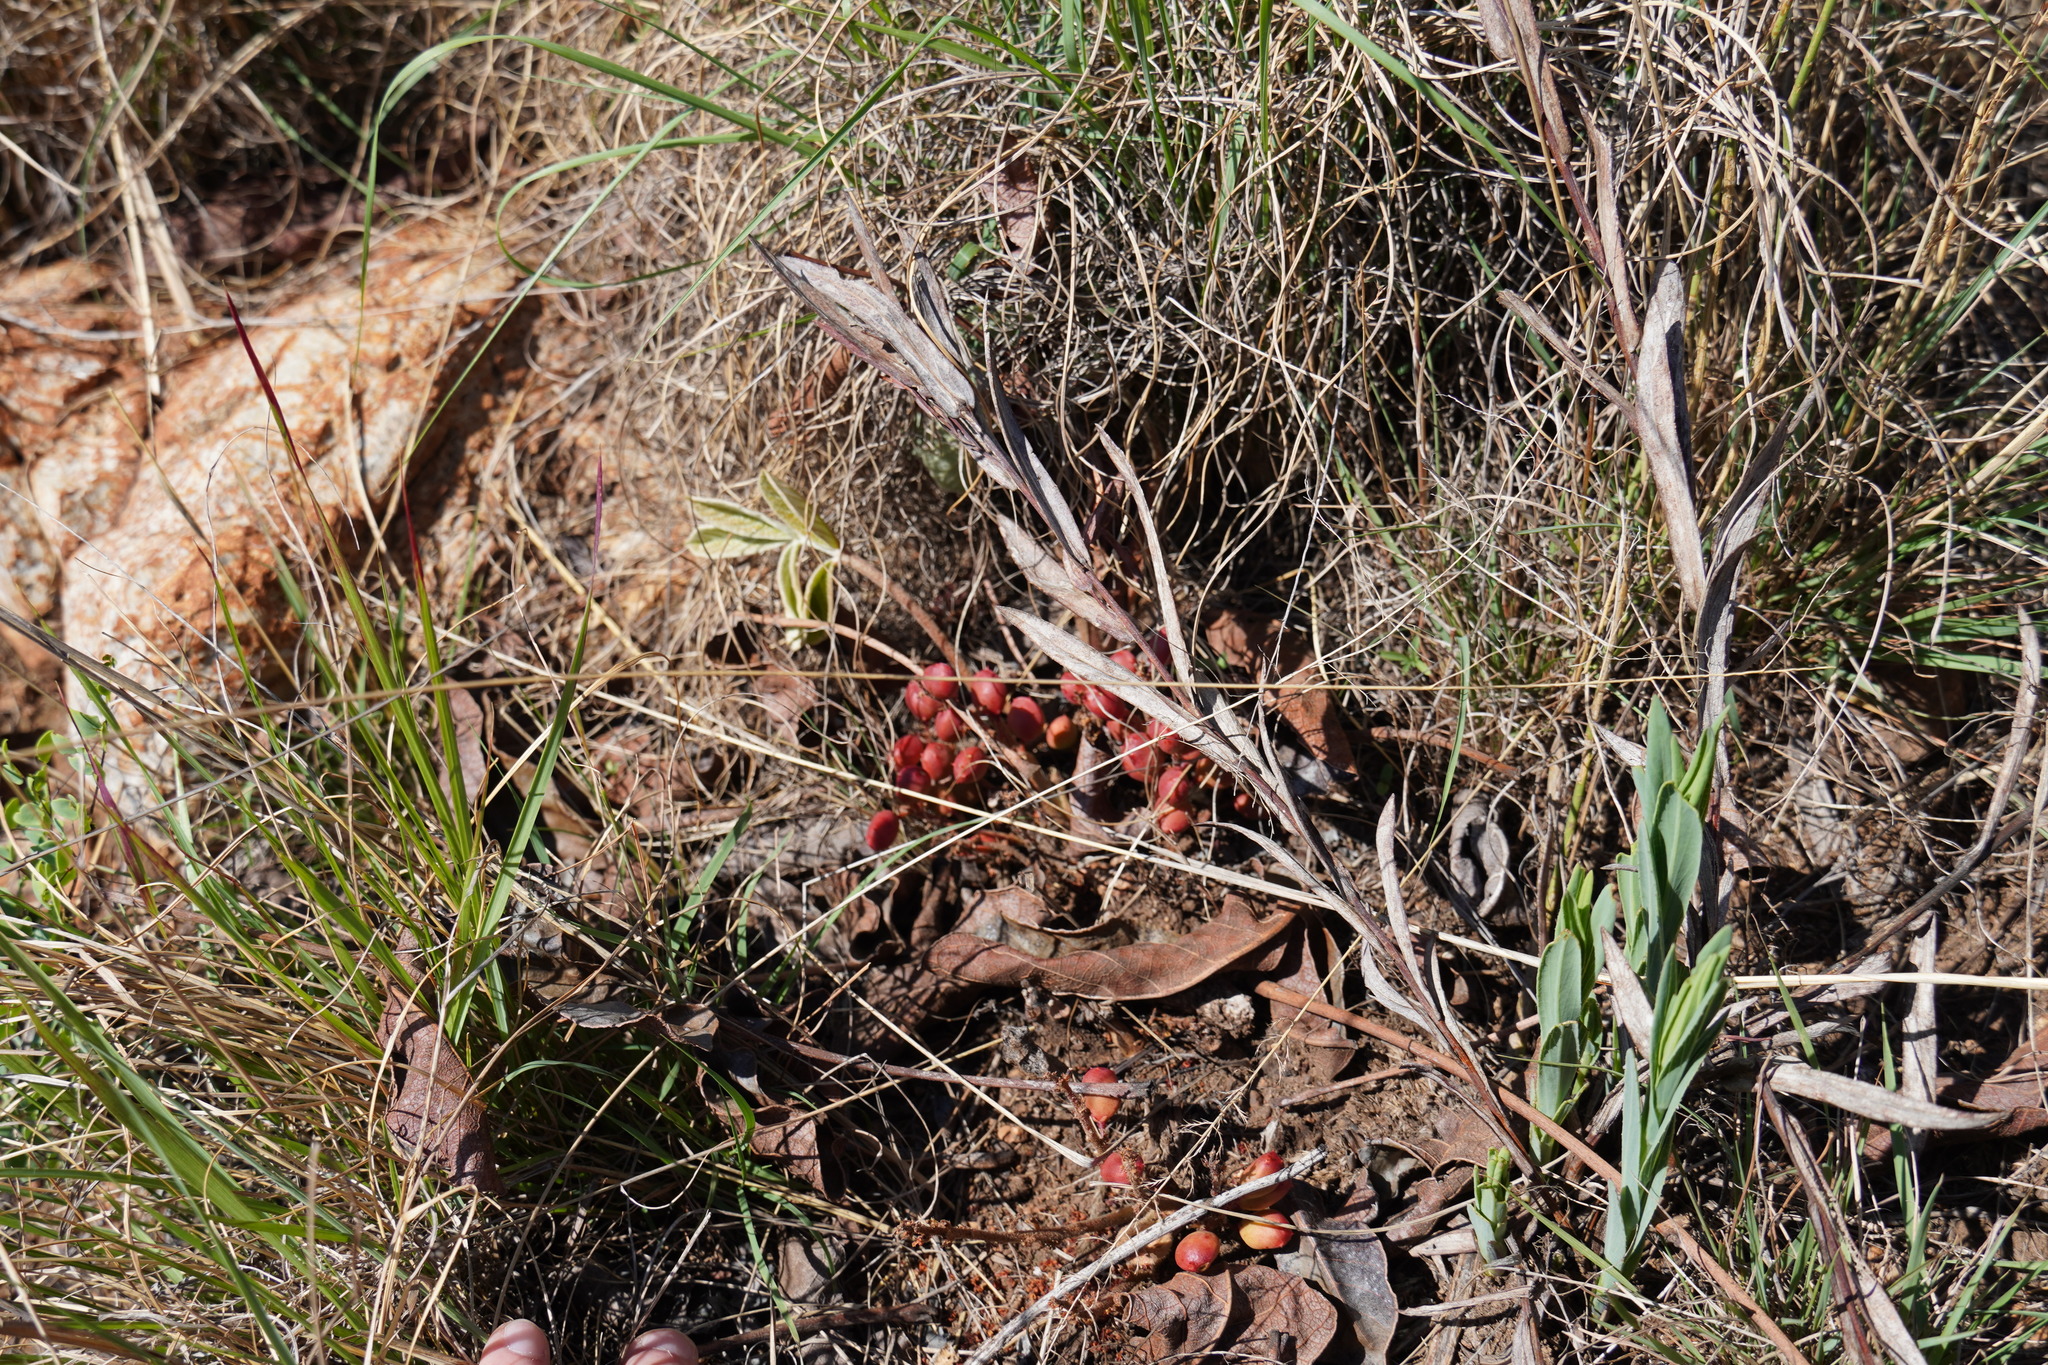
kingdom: Plantae
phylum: Tracheophyta
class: Magnoliopsida
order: Sapindales
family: Anacardiaceae
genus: Lannea
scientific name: Lannea edulis
